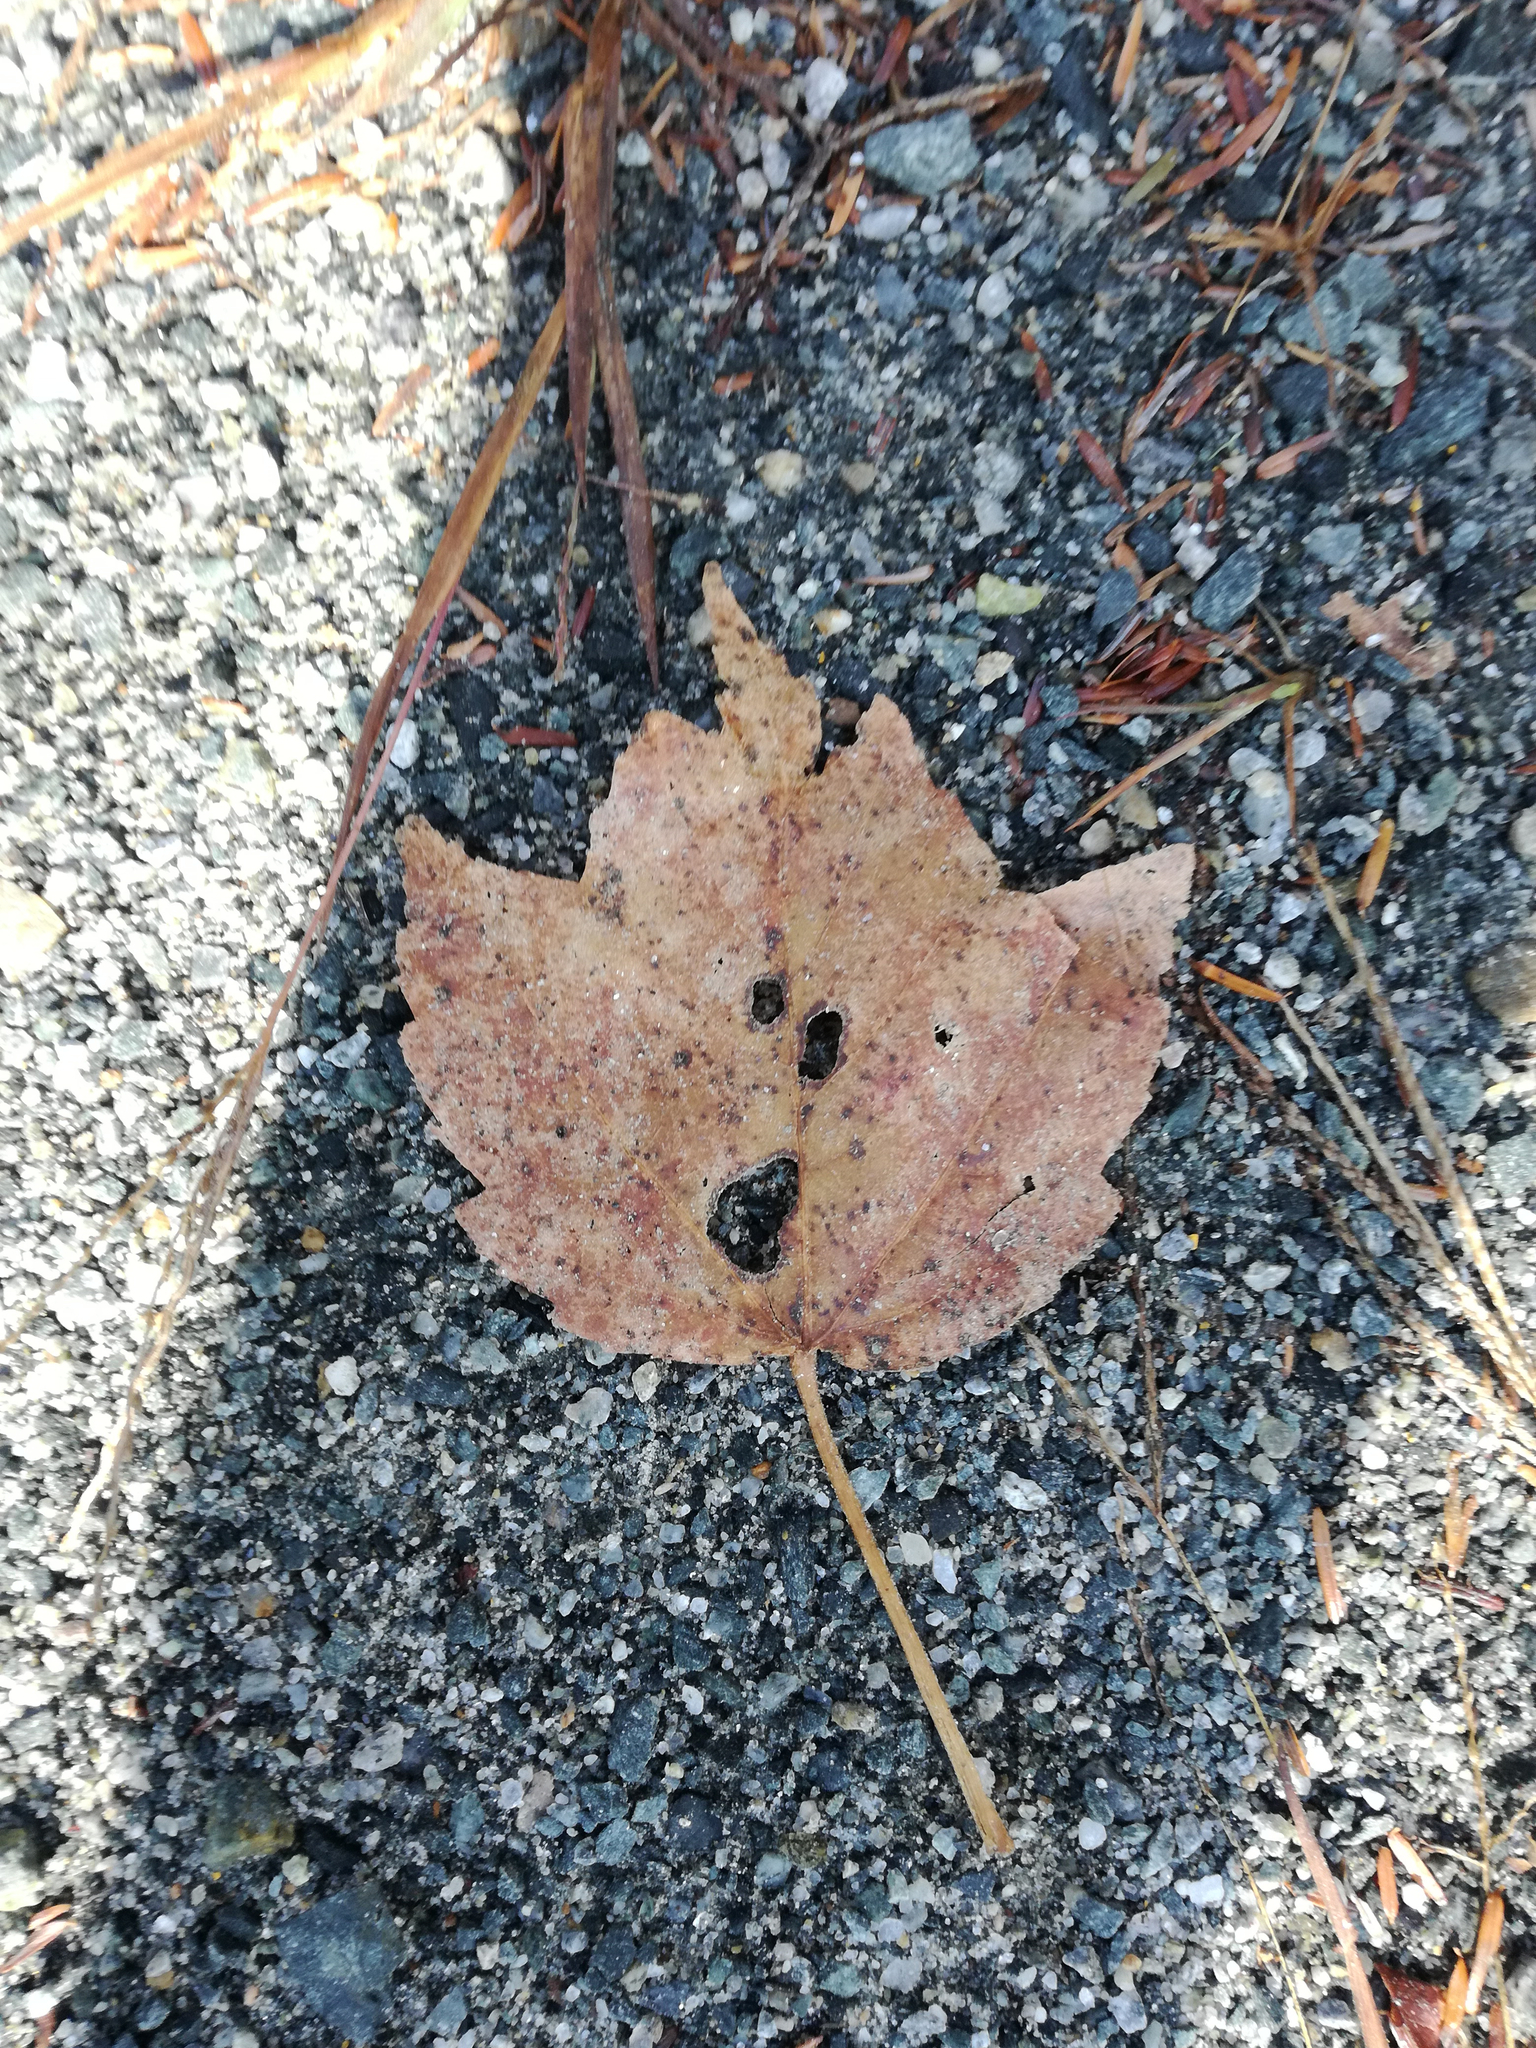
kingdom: Plantae
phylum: Tracheophyta
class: Magnoliopsida
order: Sapindales
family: Sapindaceae
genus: Acer
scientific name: Acer rubrum
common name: Red maple
